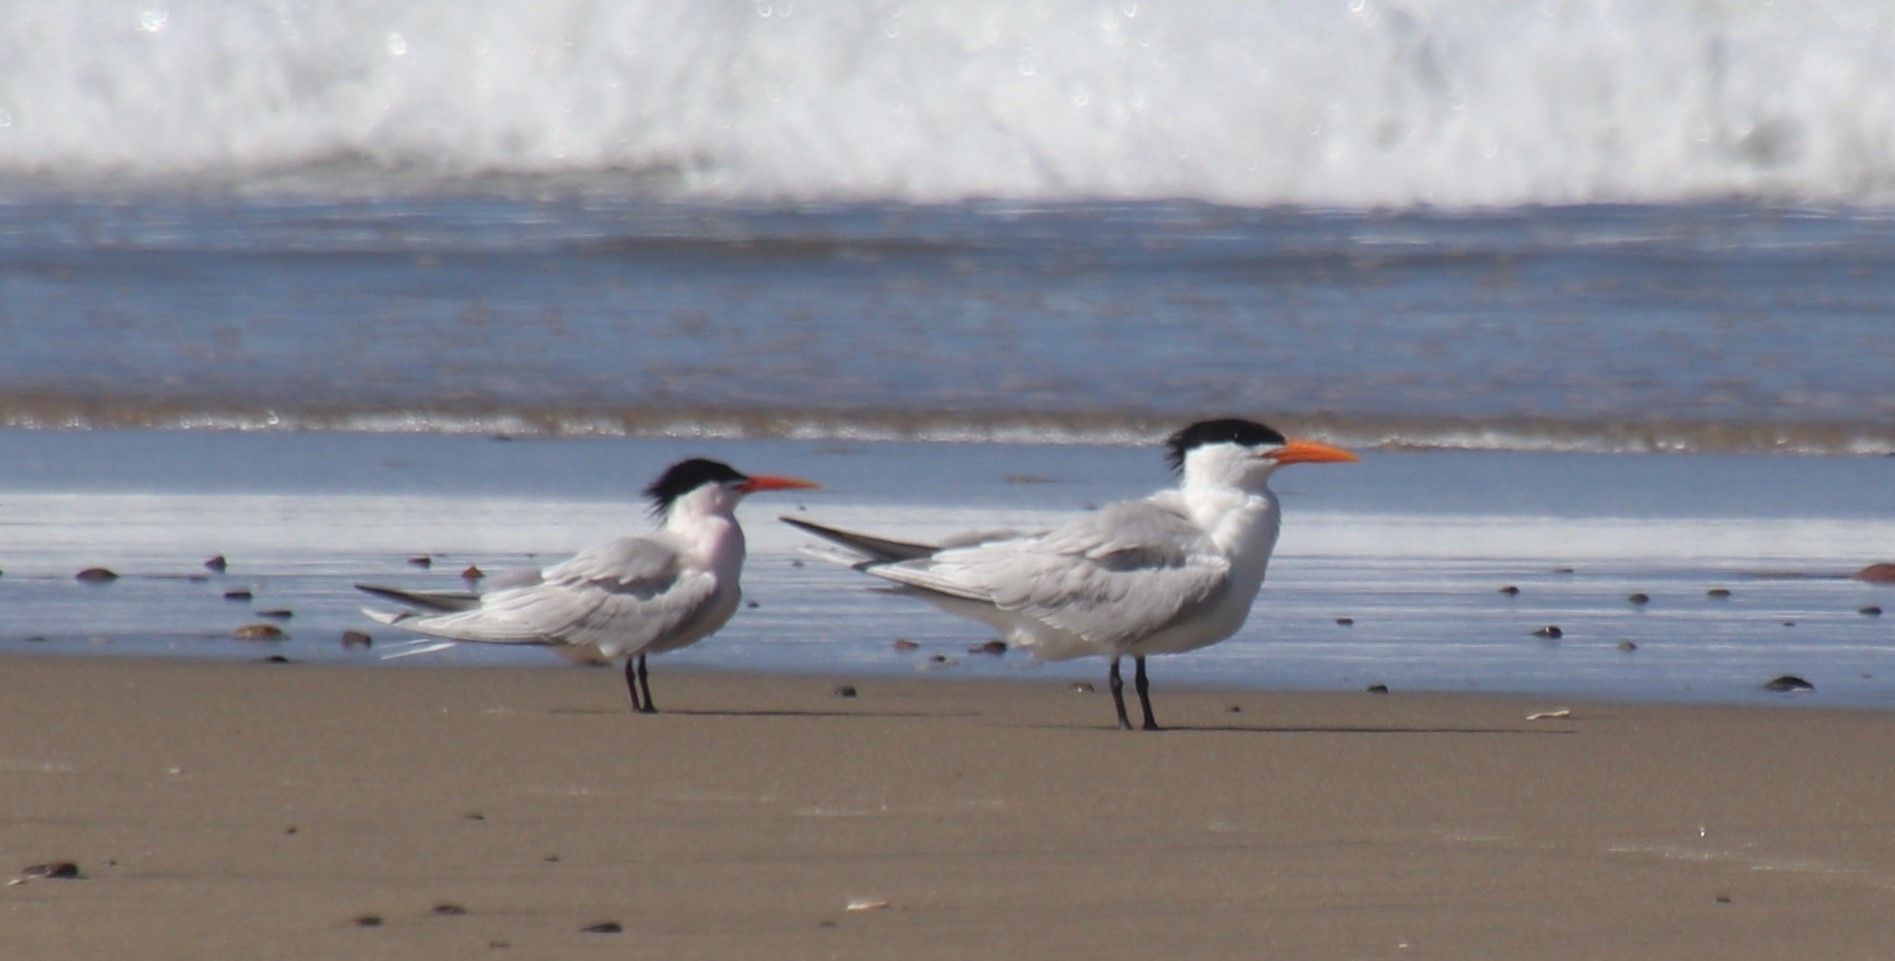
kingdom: Animalia
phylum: Chordata
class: Aves
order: Charadriiformes
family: Laridae
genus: Thalasseus
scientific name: Thalasseus maximus
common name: Royal tern
